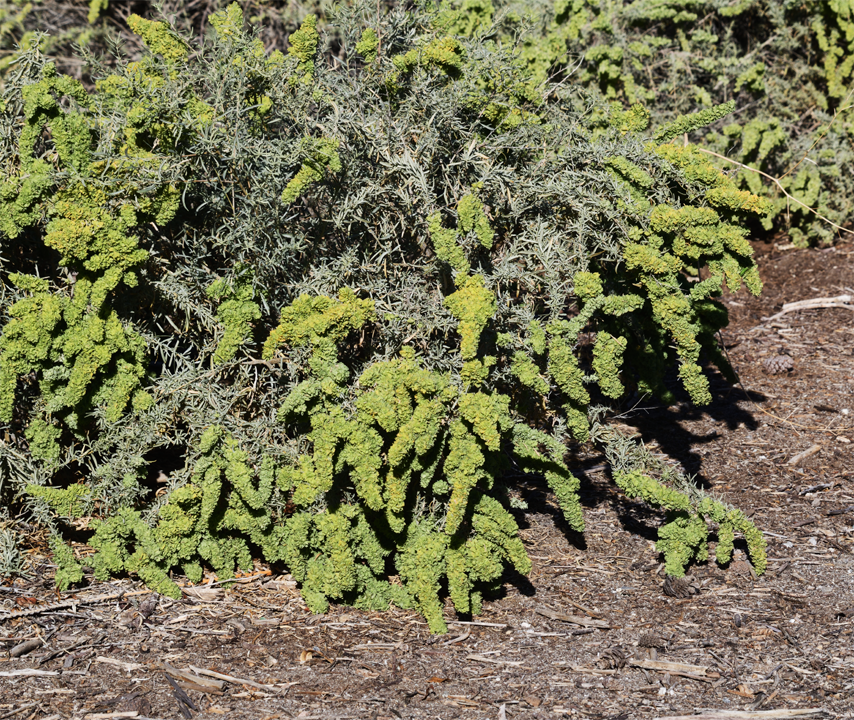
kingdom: Plantae
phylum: Tracheophyta
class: Magnoliopsida
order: Caryophyllales
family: Amaranthaceae
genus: Atriplex
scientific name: Atriplex canescens
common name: Four-wing saltbush
